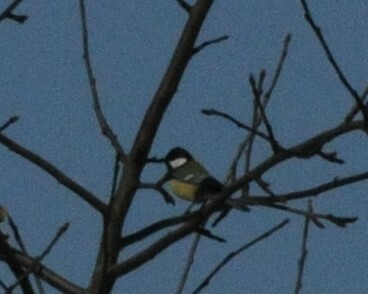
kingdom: Animalia
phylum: Chordata
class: Aves
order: Passeriformes
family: Paridae
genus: Parus
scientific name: Parus major
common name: Great tit
